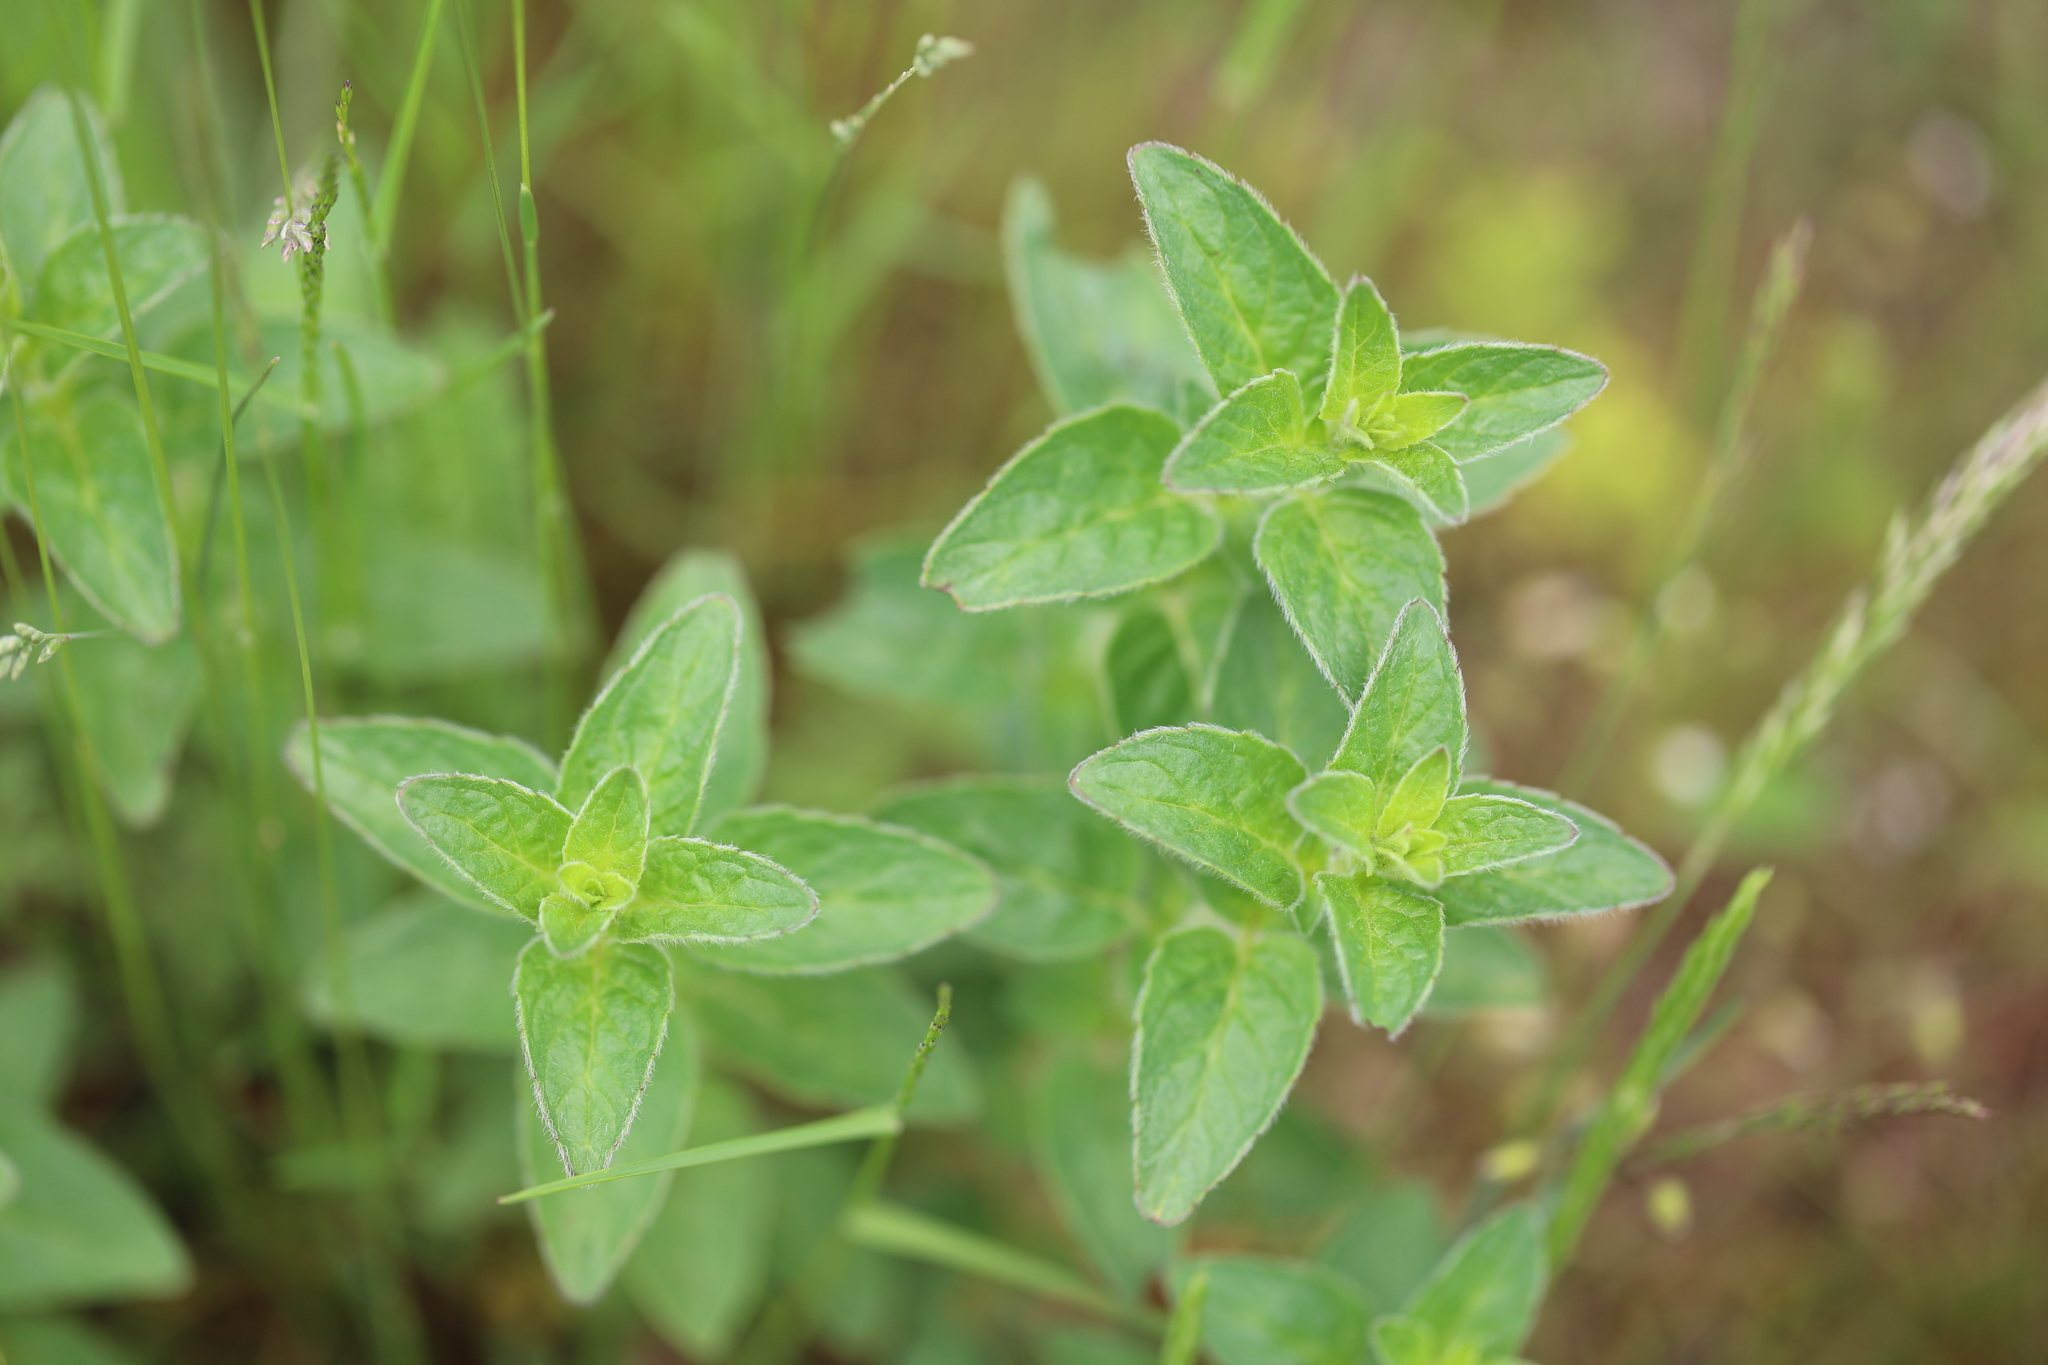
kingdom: Plantae
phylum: Tracheophyta
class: Magnoliopsida
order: Lamiales
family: Lamiaceae
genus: Origanum
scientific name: Origanum vulgare
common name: Wild marjoram
